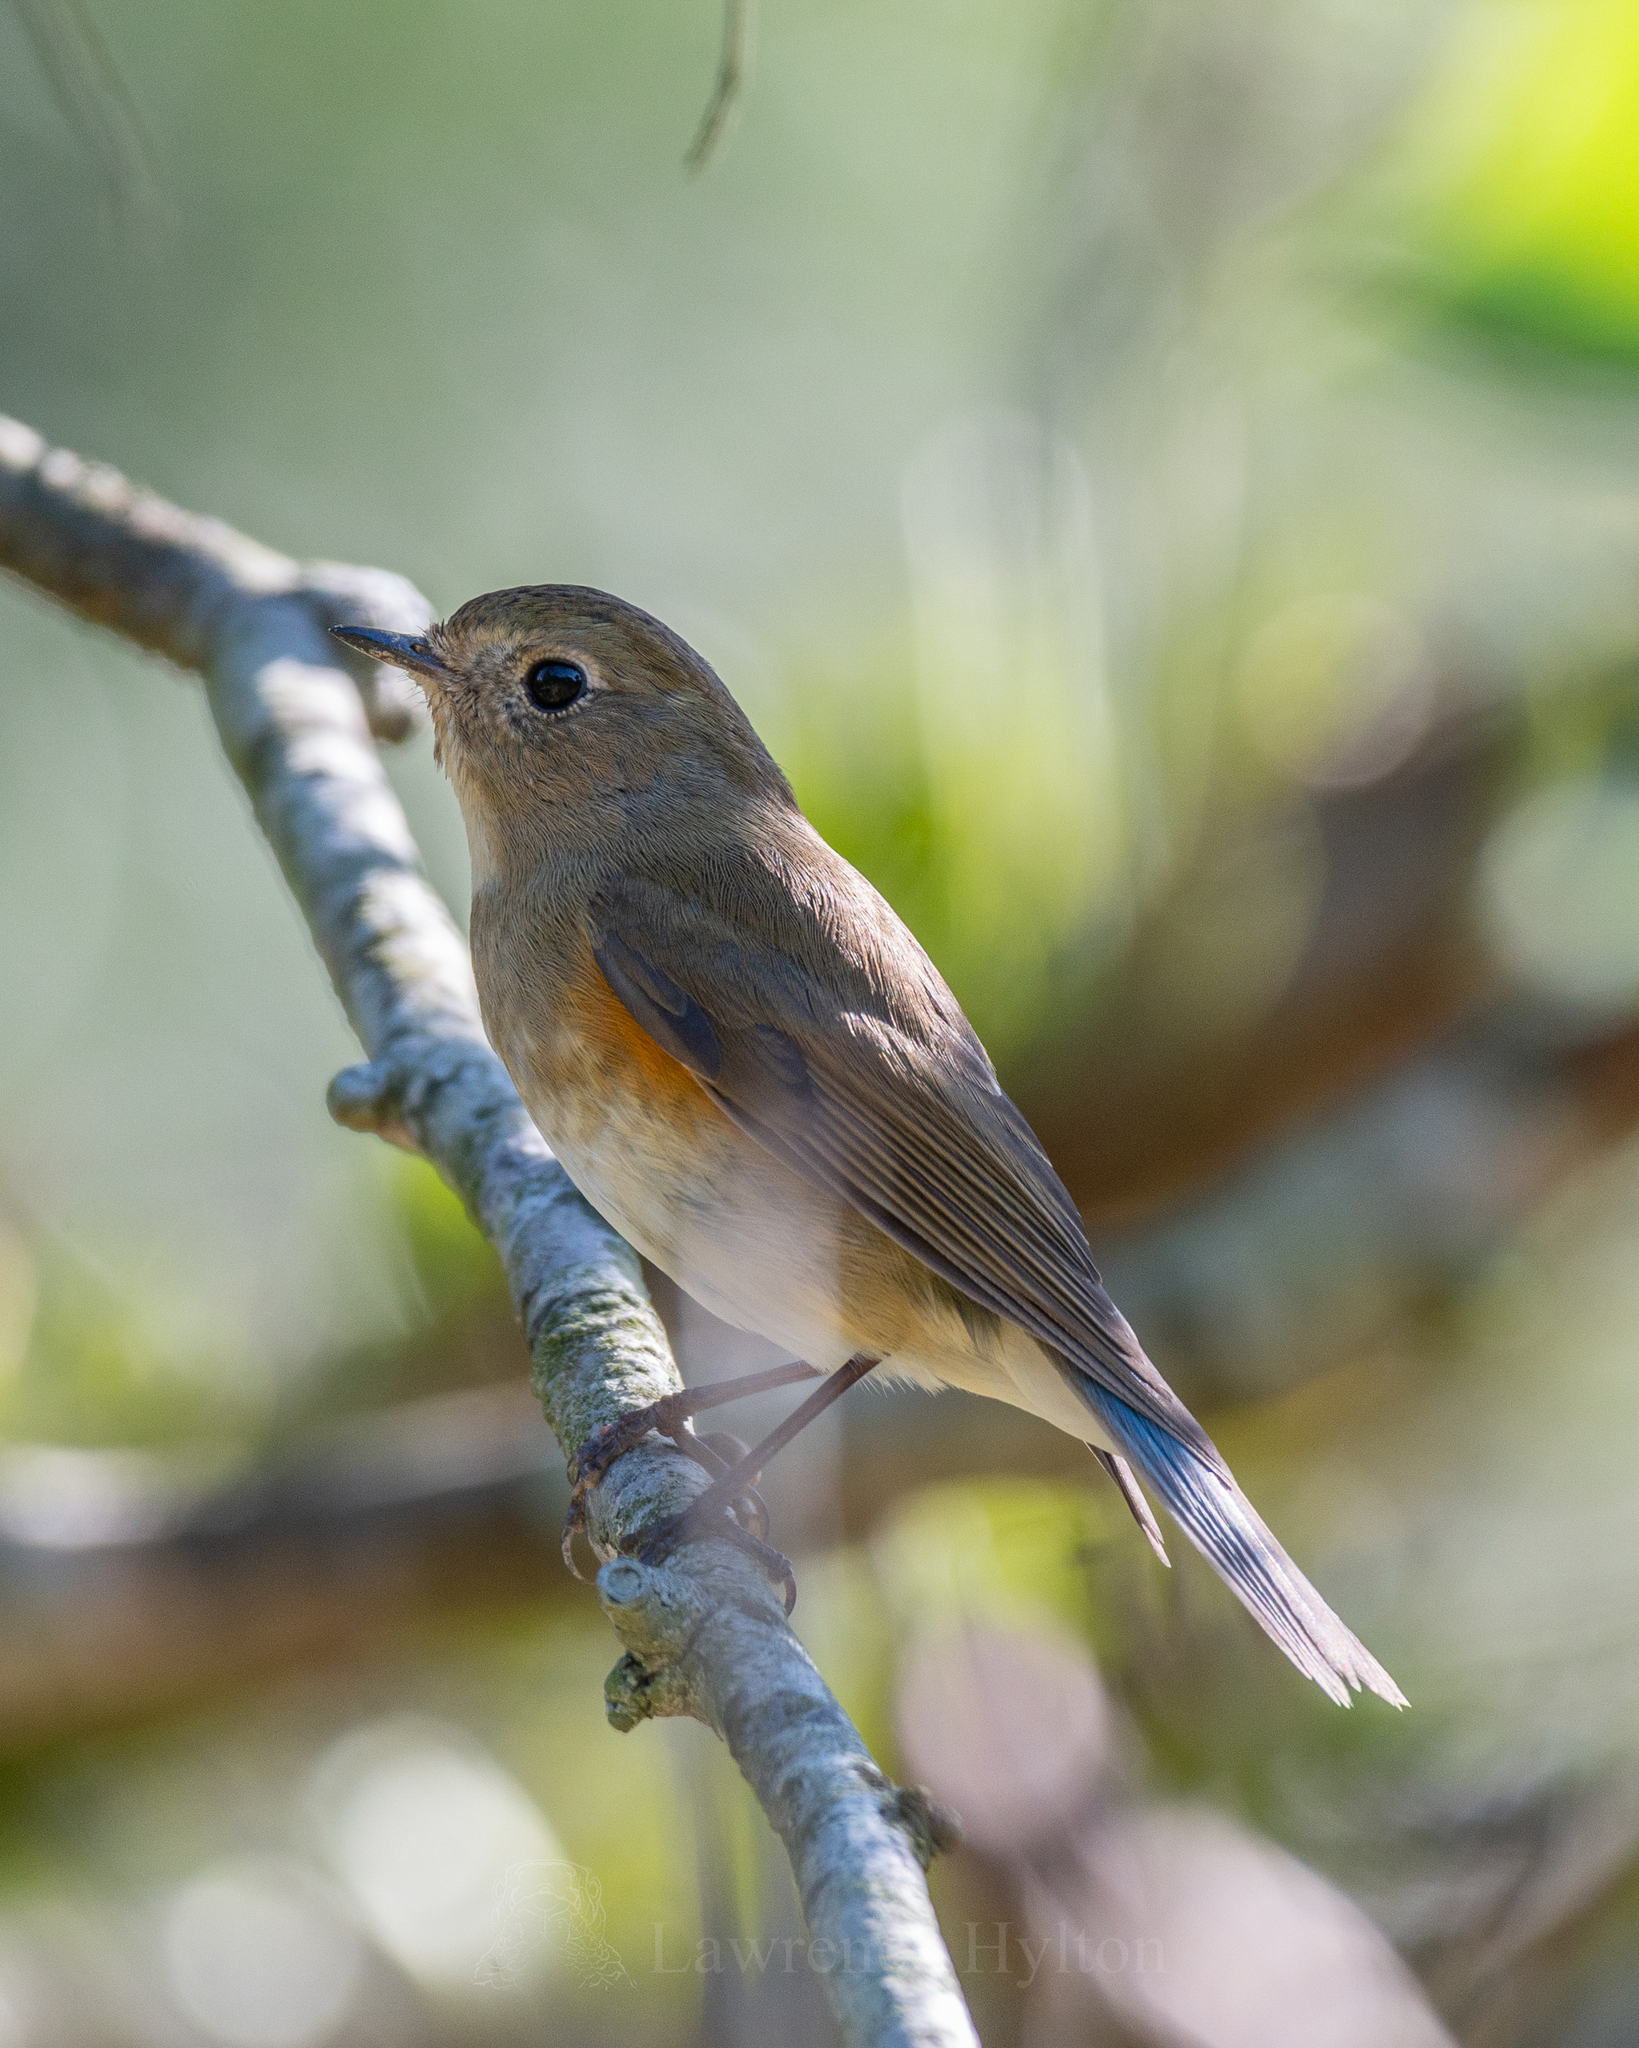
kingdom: Animalia
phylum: Chordata
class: Aves
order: Passeriformes
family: Muscicapidae
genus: Tarsiger
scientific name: Tarsiger cyanurus
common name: Red-flanked bluetail
